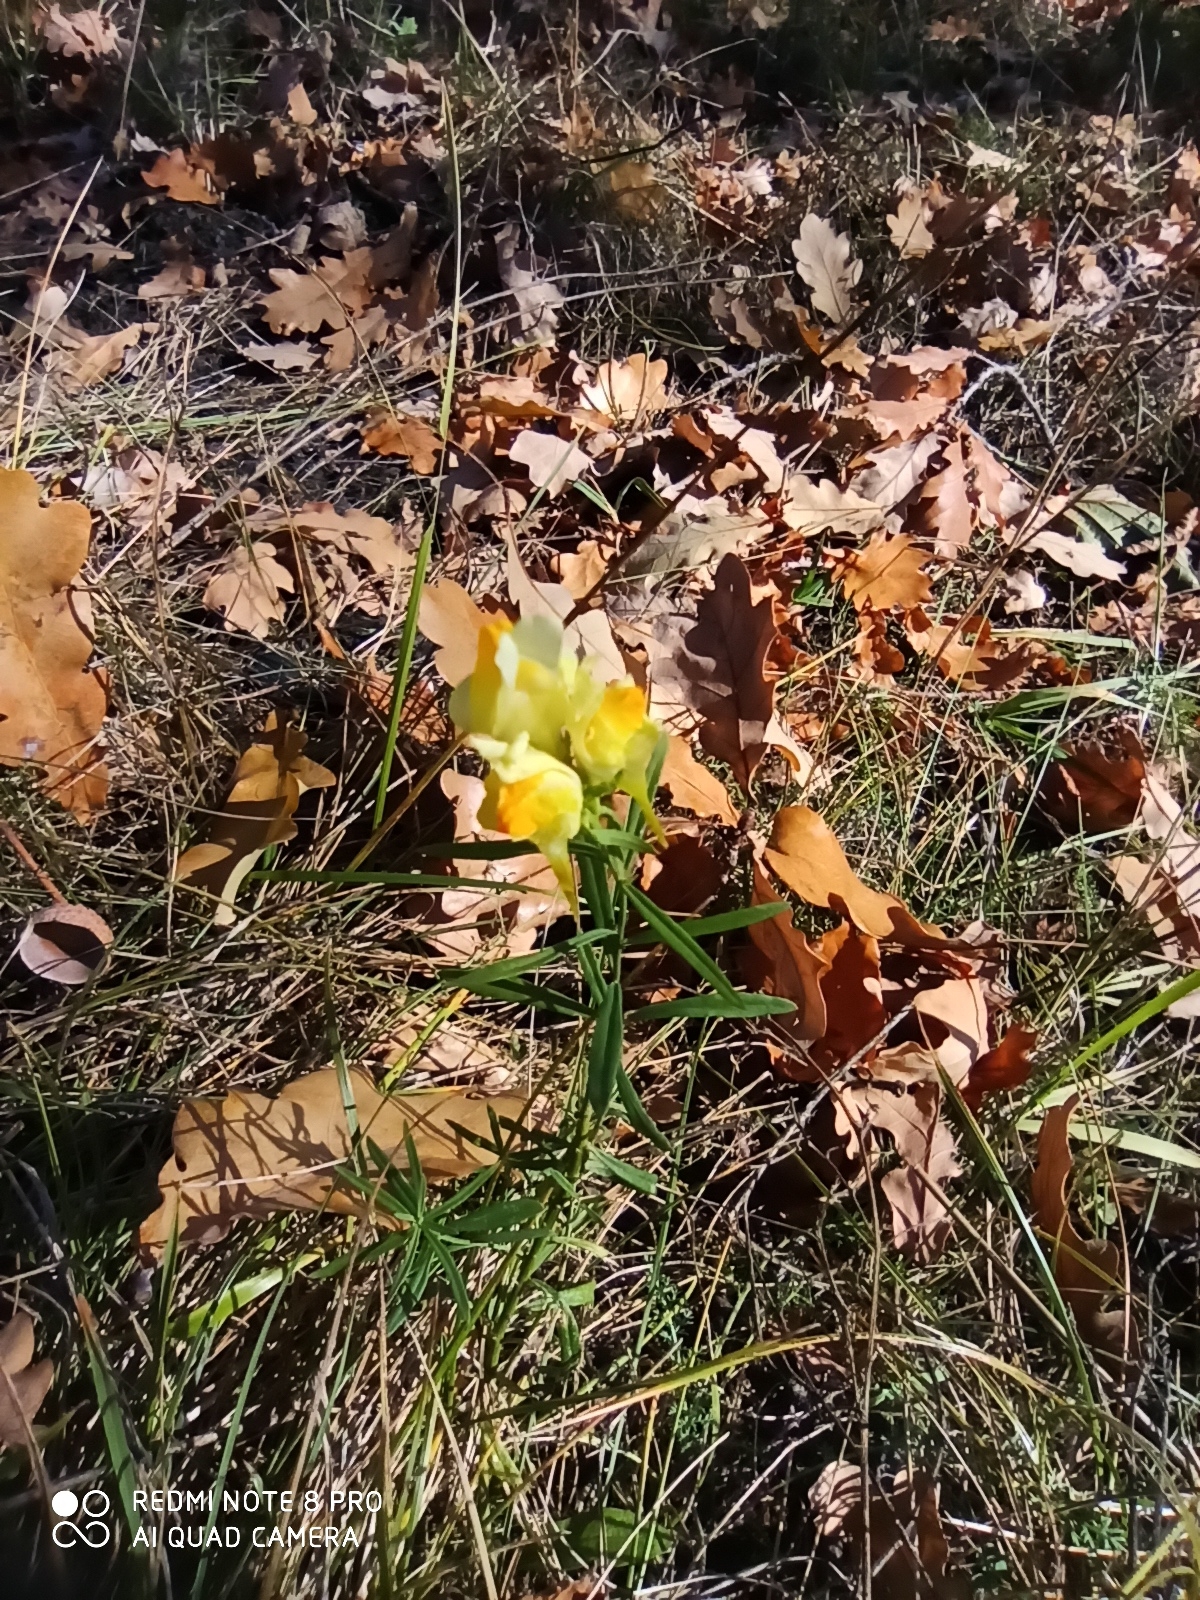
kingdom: Plantae
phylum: Tracheophyta
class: Magnoliopsida
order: Lamiales
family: Plantaginaceae
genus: Linaria
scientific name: Linaria vulgaris
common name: Butter and eggs
